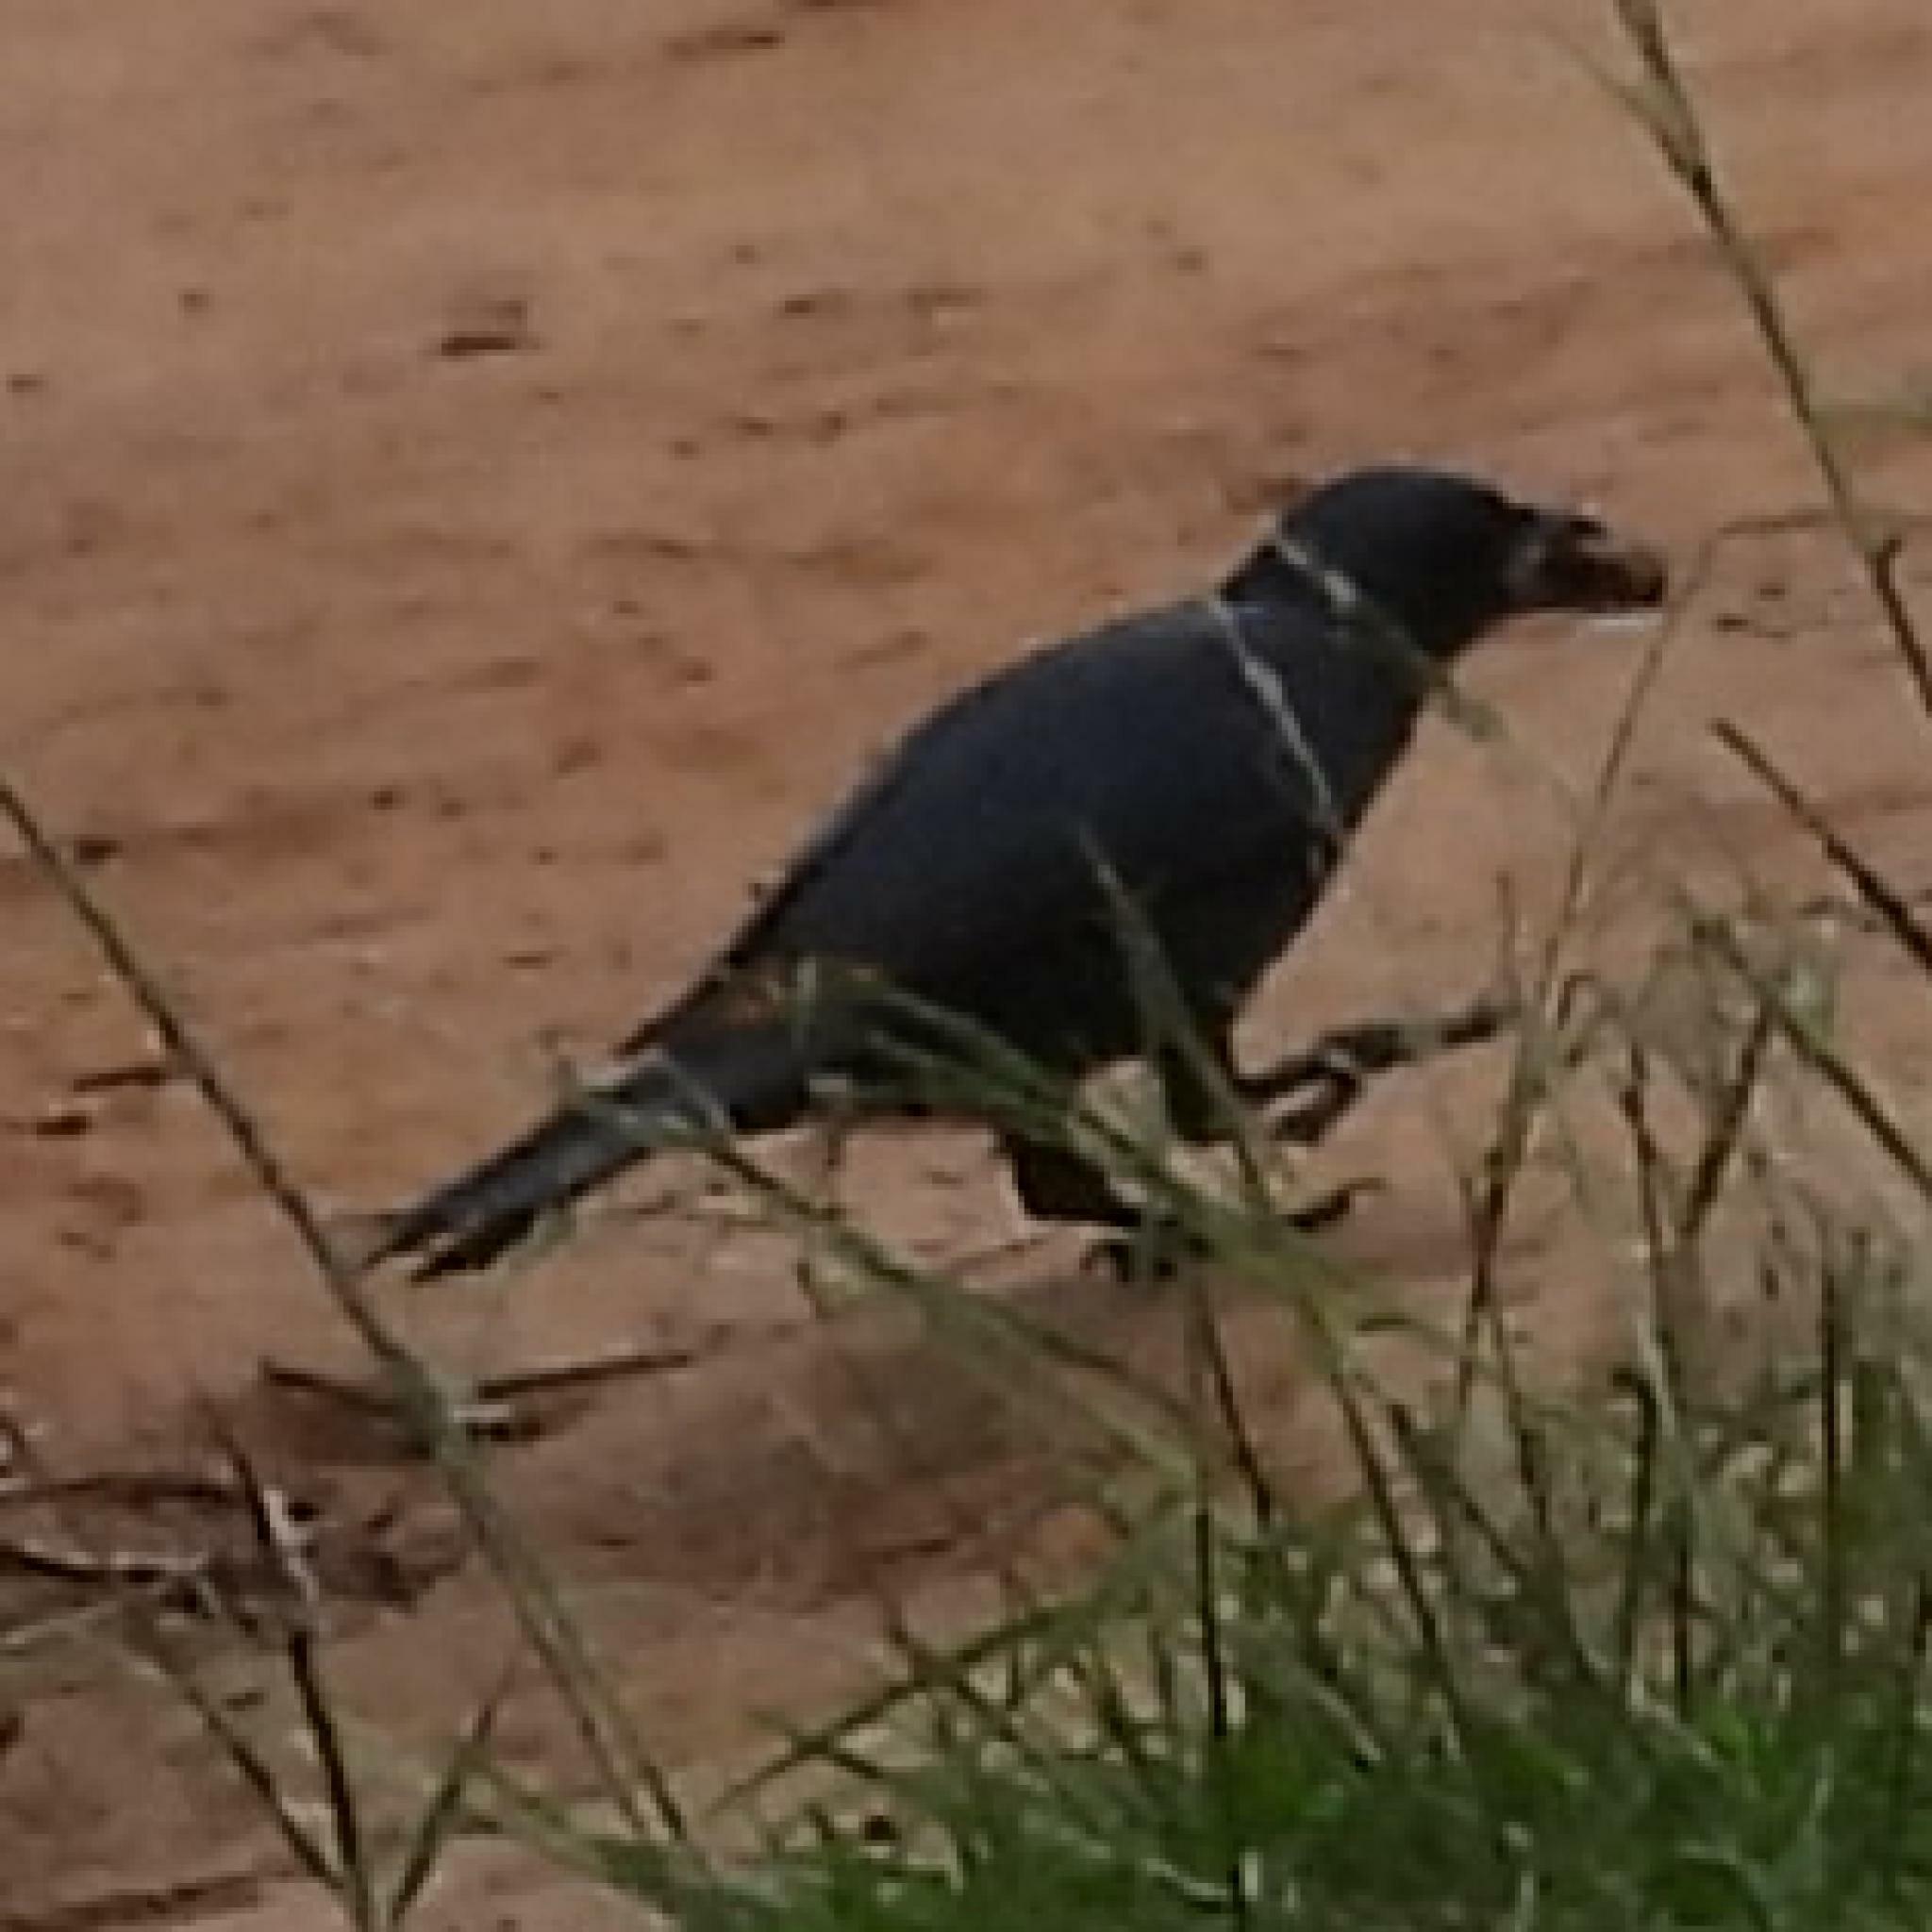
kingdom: Animalia
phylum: Chordata
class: Aves
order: Passeriformes
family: Sturnidae
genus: Onychognathus
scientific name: Onychognathus morio
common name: Red-winged starling
